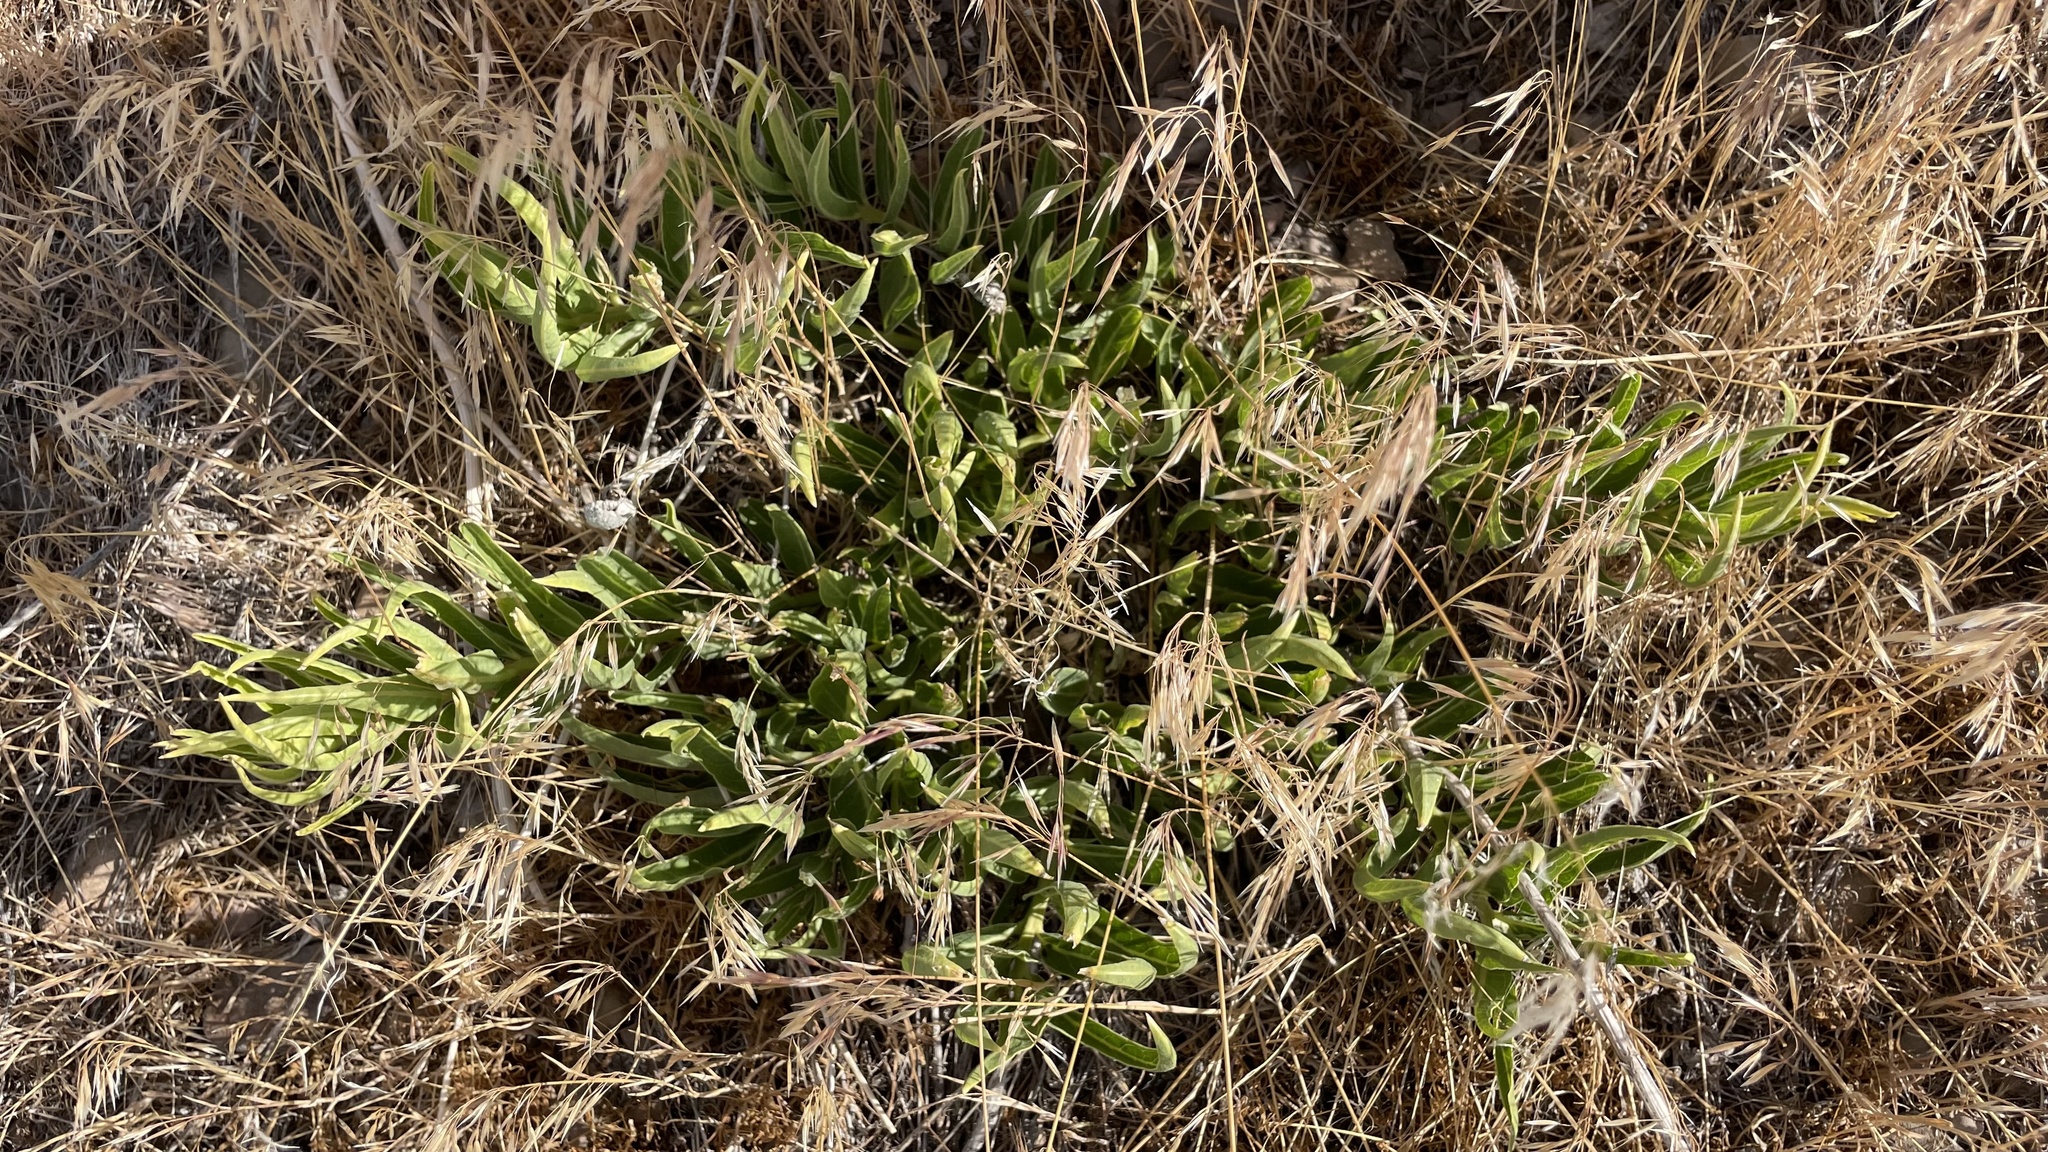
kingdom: Plantae
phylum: Tracheophyta
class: Magnoliopsida
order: Gentianales
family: Apocynaceae
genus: Asclepias
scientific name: Asclepias asperula
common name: Antelope horns
